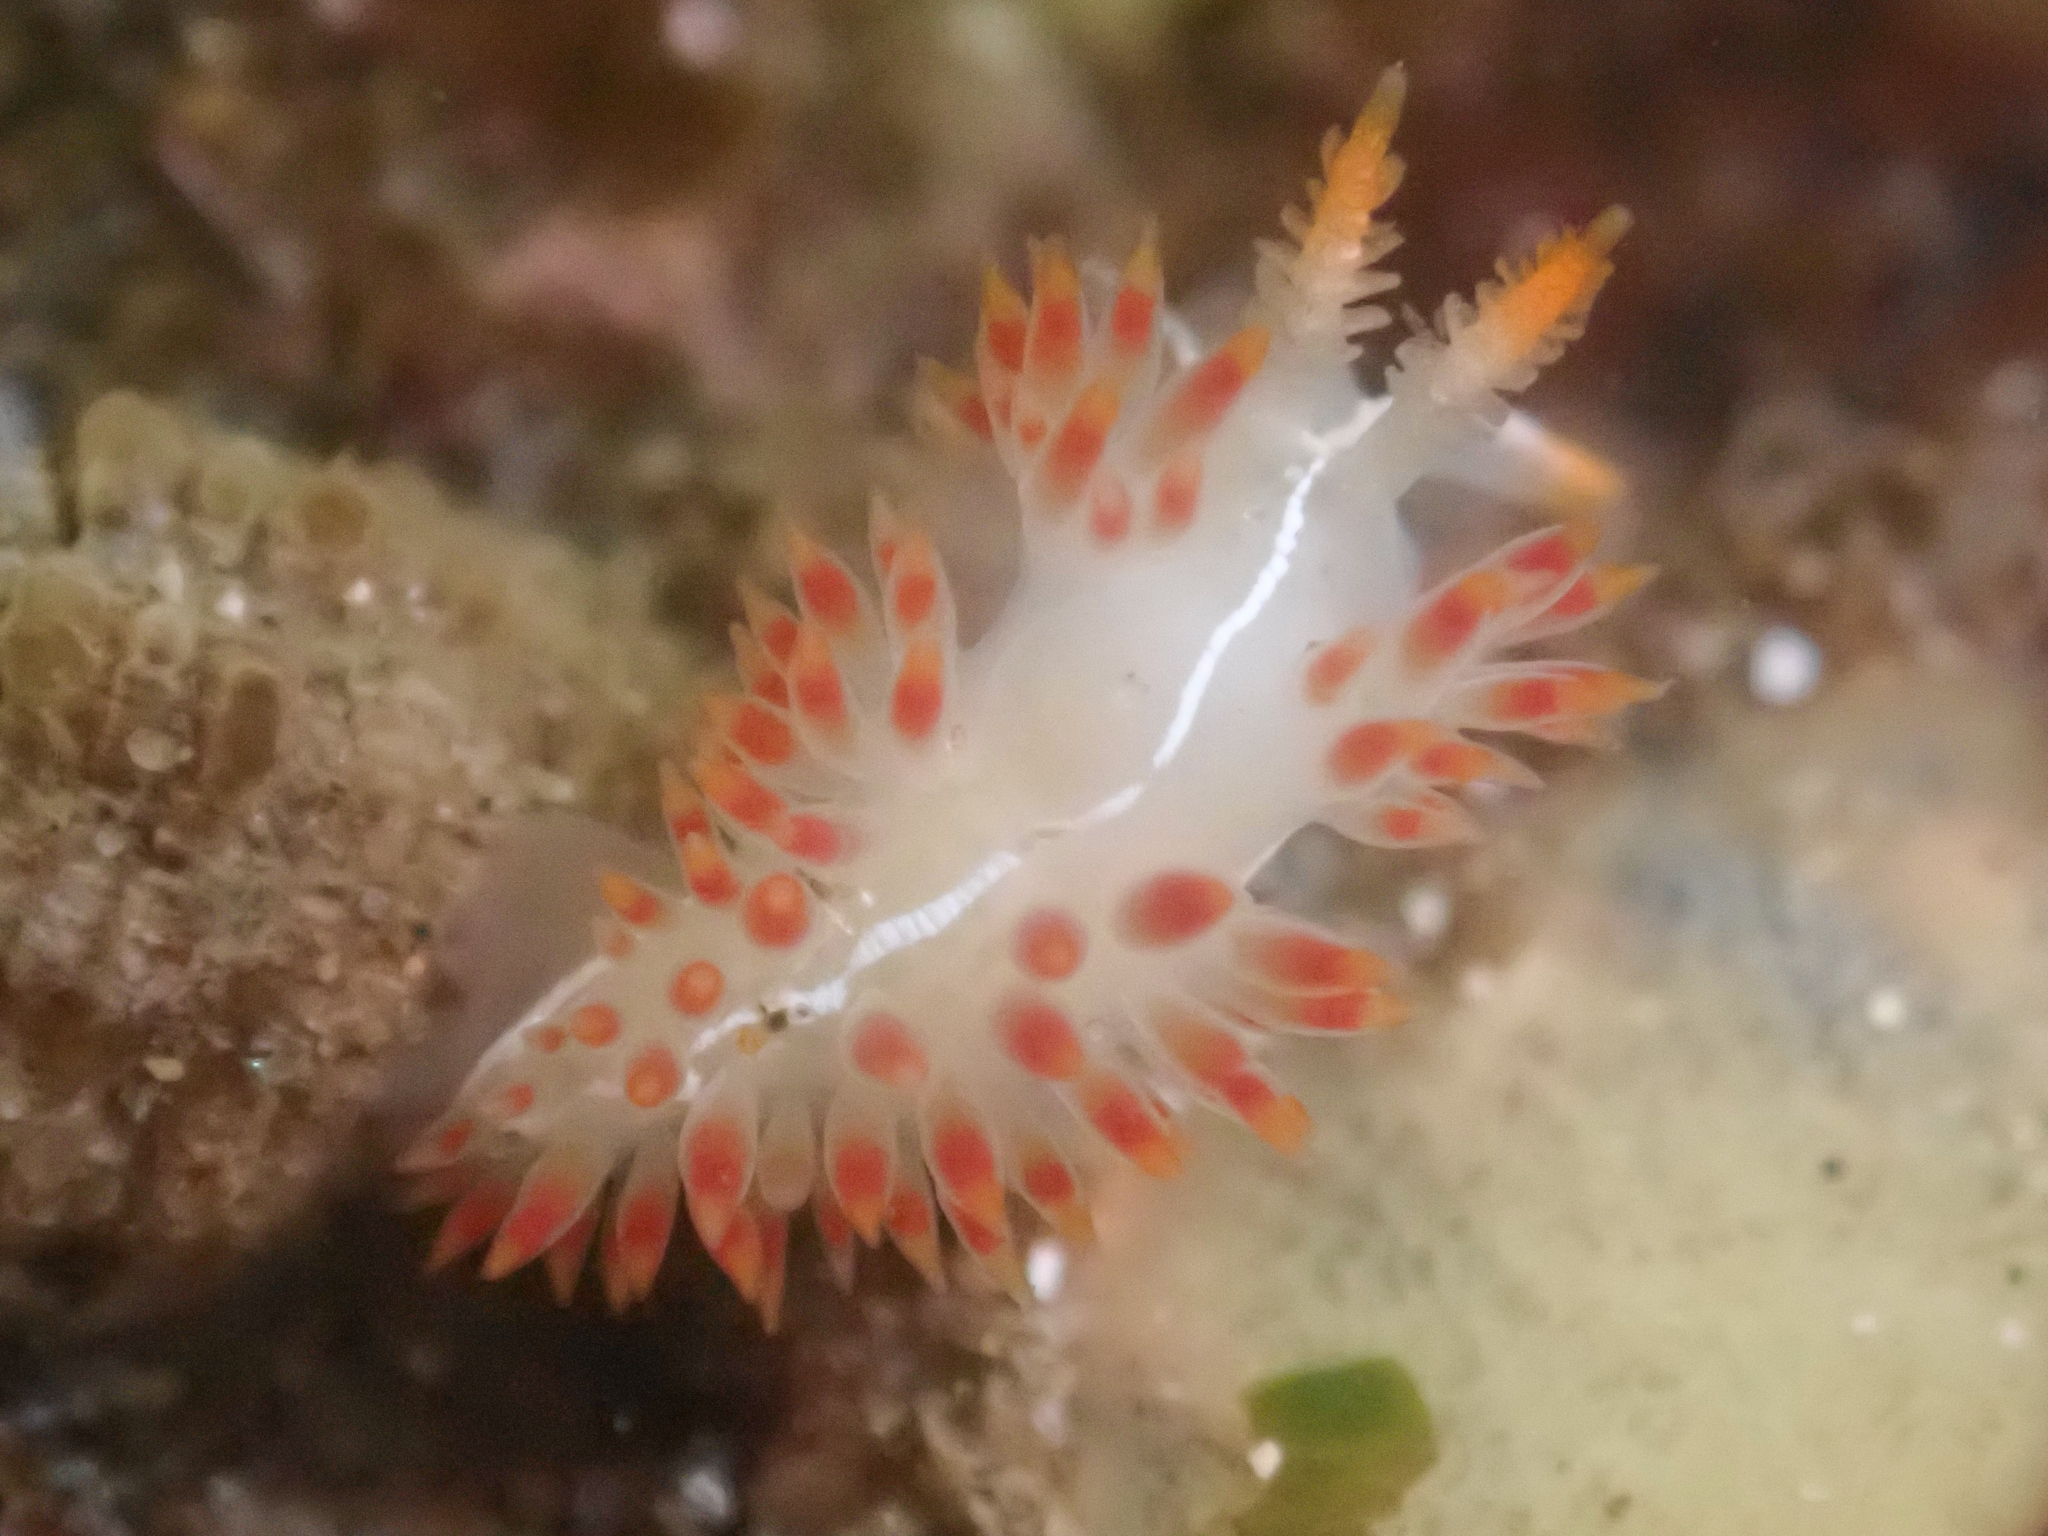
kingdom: Animalia
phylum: Mollusca
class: Gastropoda
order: Nudibranchia
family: Coryphellidae
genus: Coryphella
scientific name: Coryphella trilineata
